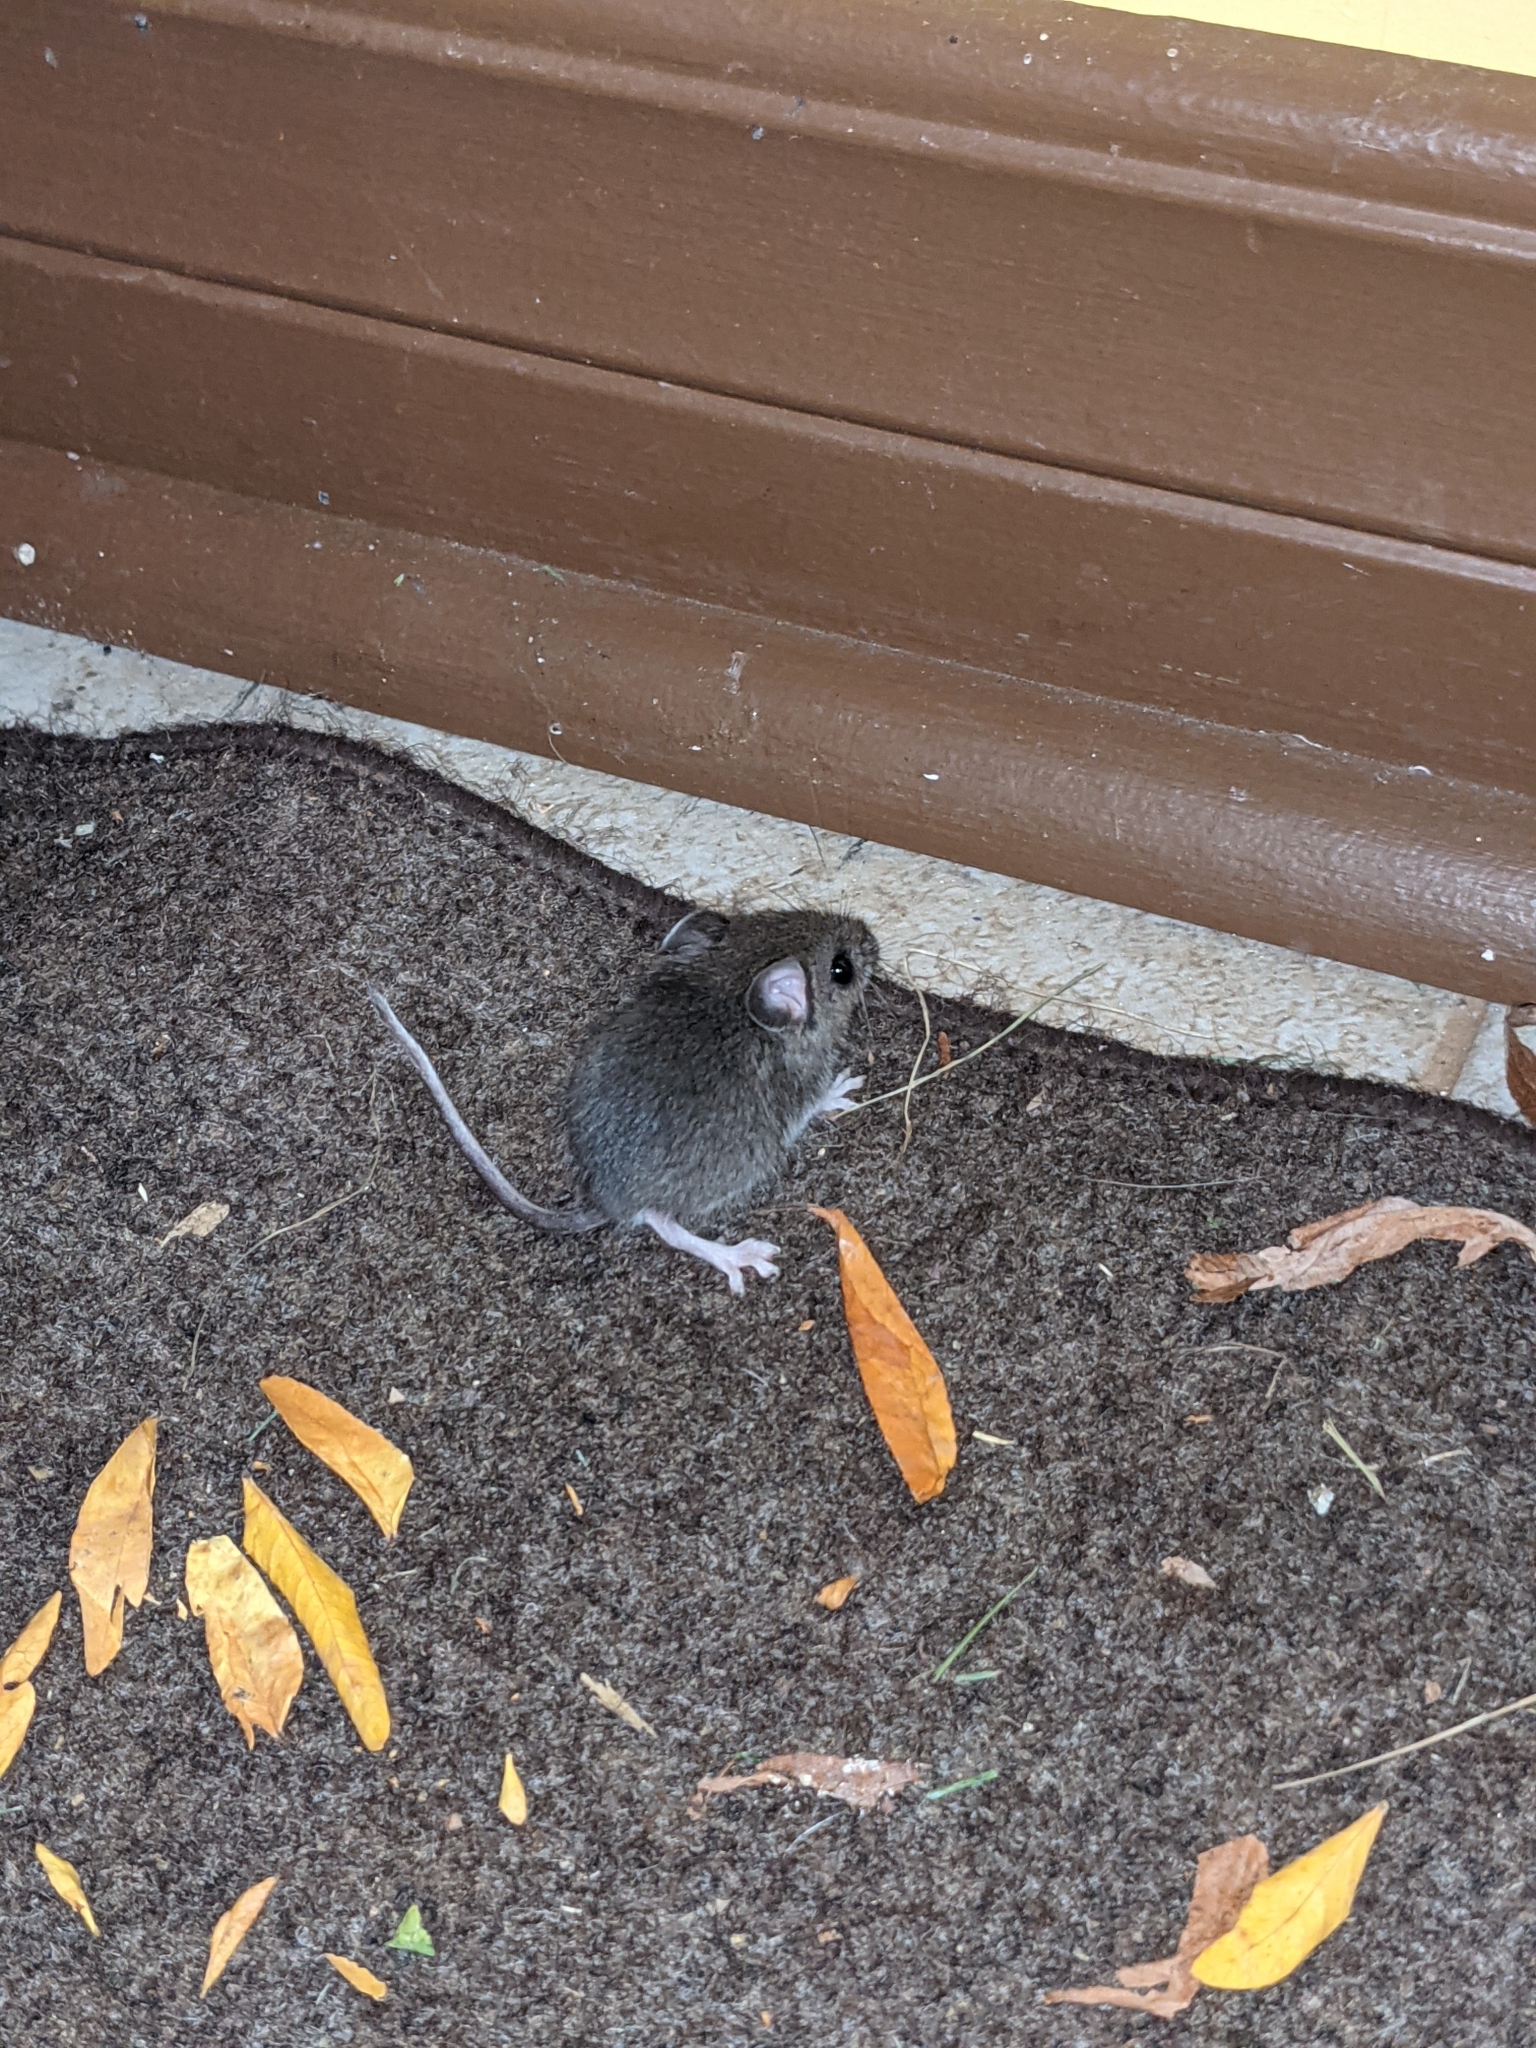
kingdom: Animalia
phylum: Chordata
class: Mammalia
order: Rodentia
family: Cricetidae
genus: Peromyscus
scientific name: Peromyscus maniculatus
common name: Deer mouse
